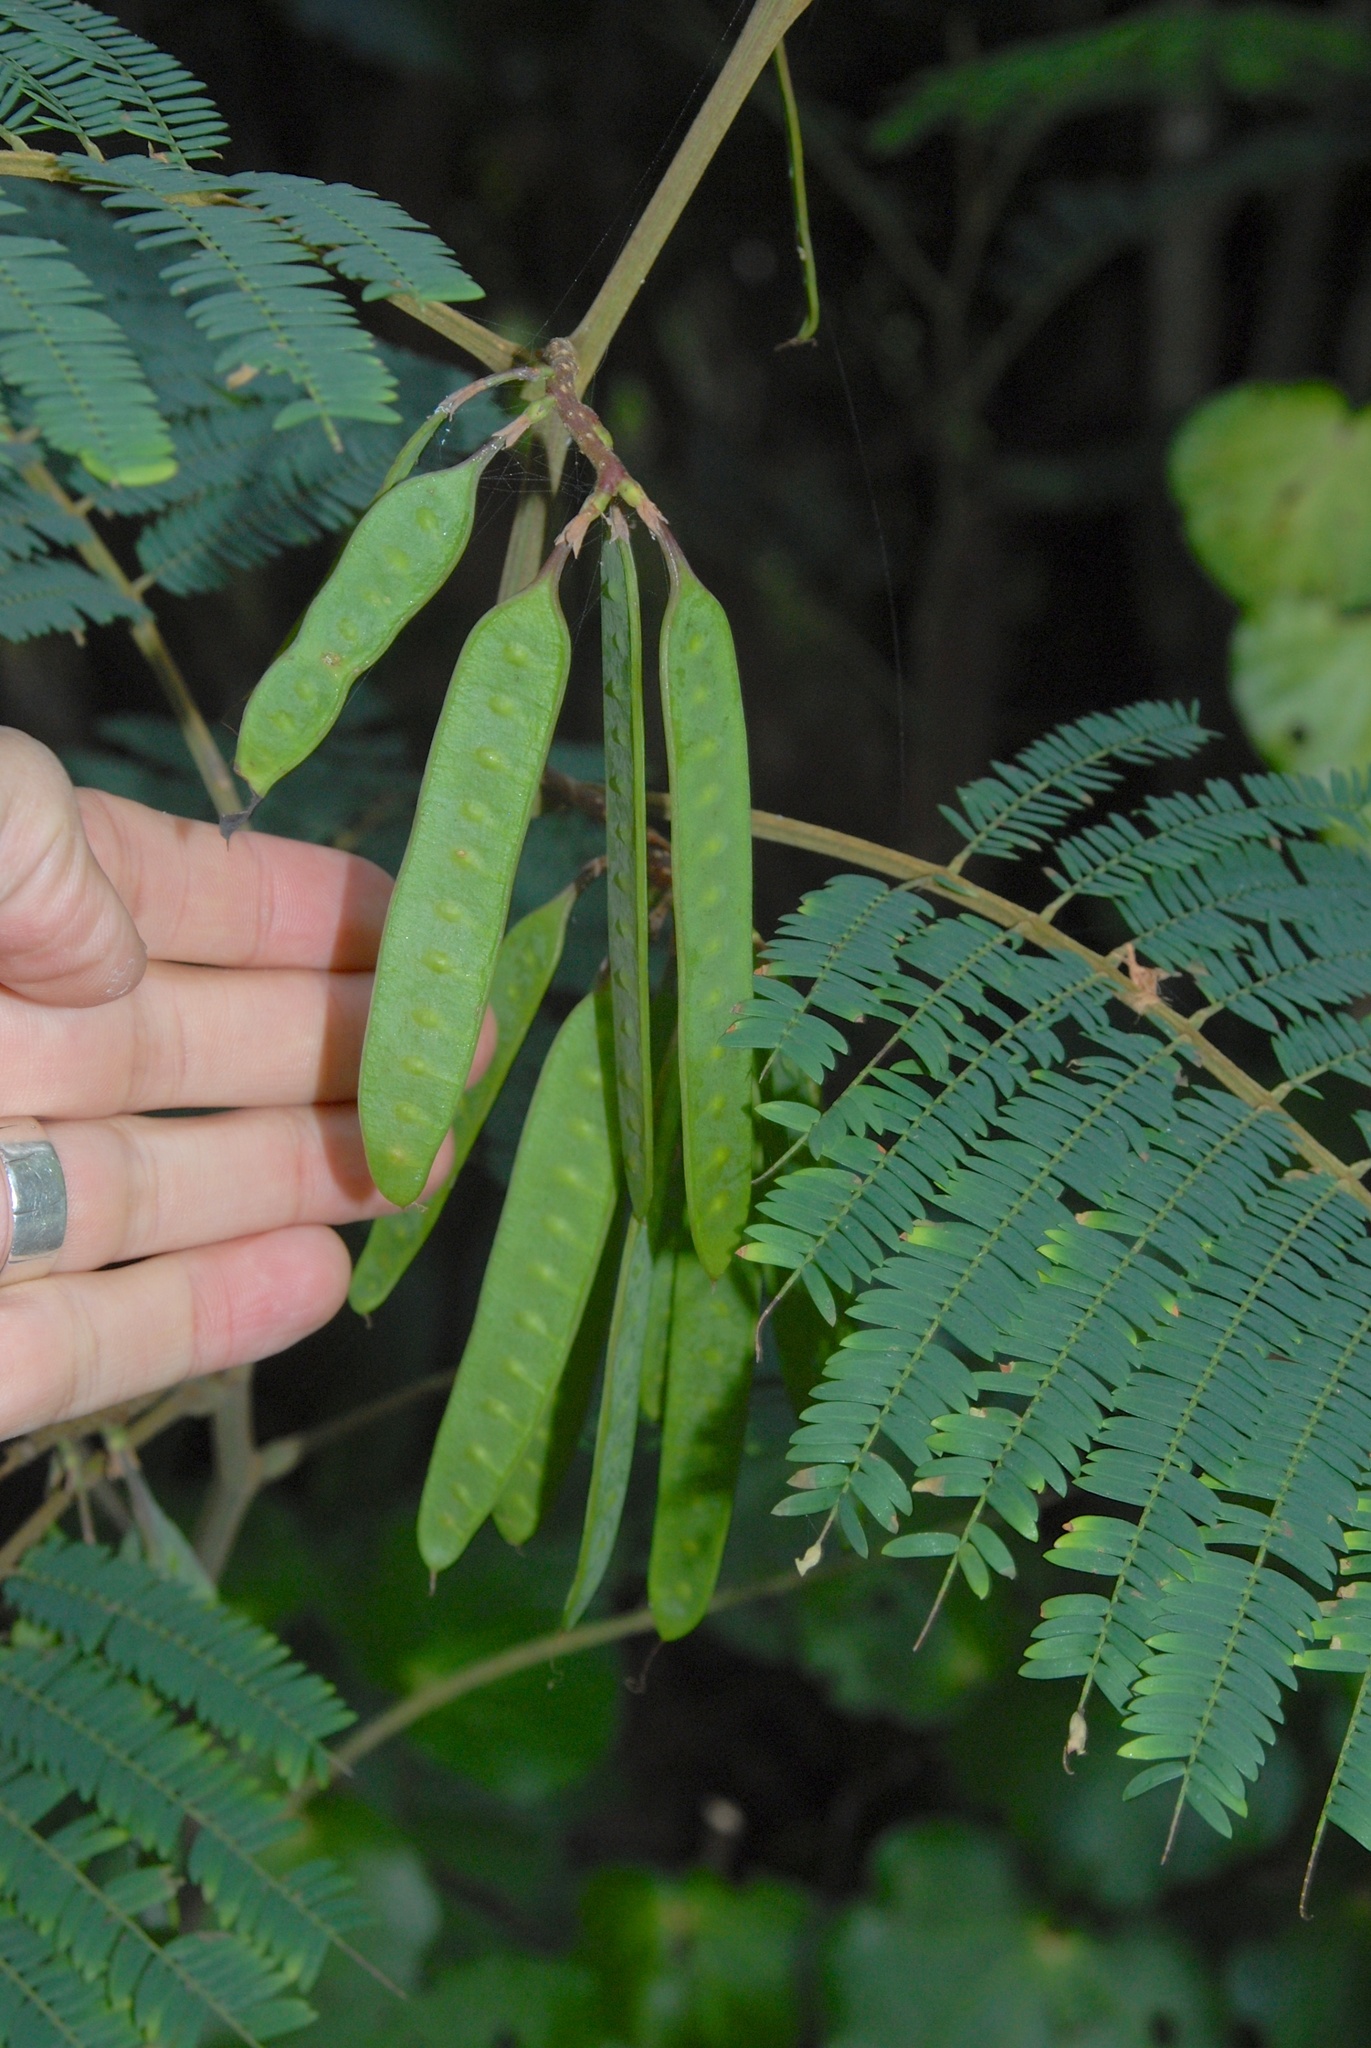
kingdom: Plantae
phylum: Tracheophyta
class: Magnoliopsida
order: Fabales
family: Fabaceae
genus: Paraserianthes
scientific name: Paraserianthes lophantha
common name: Plume albizia
